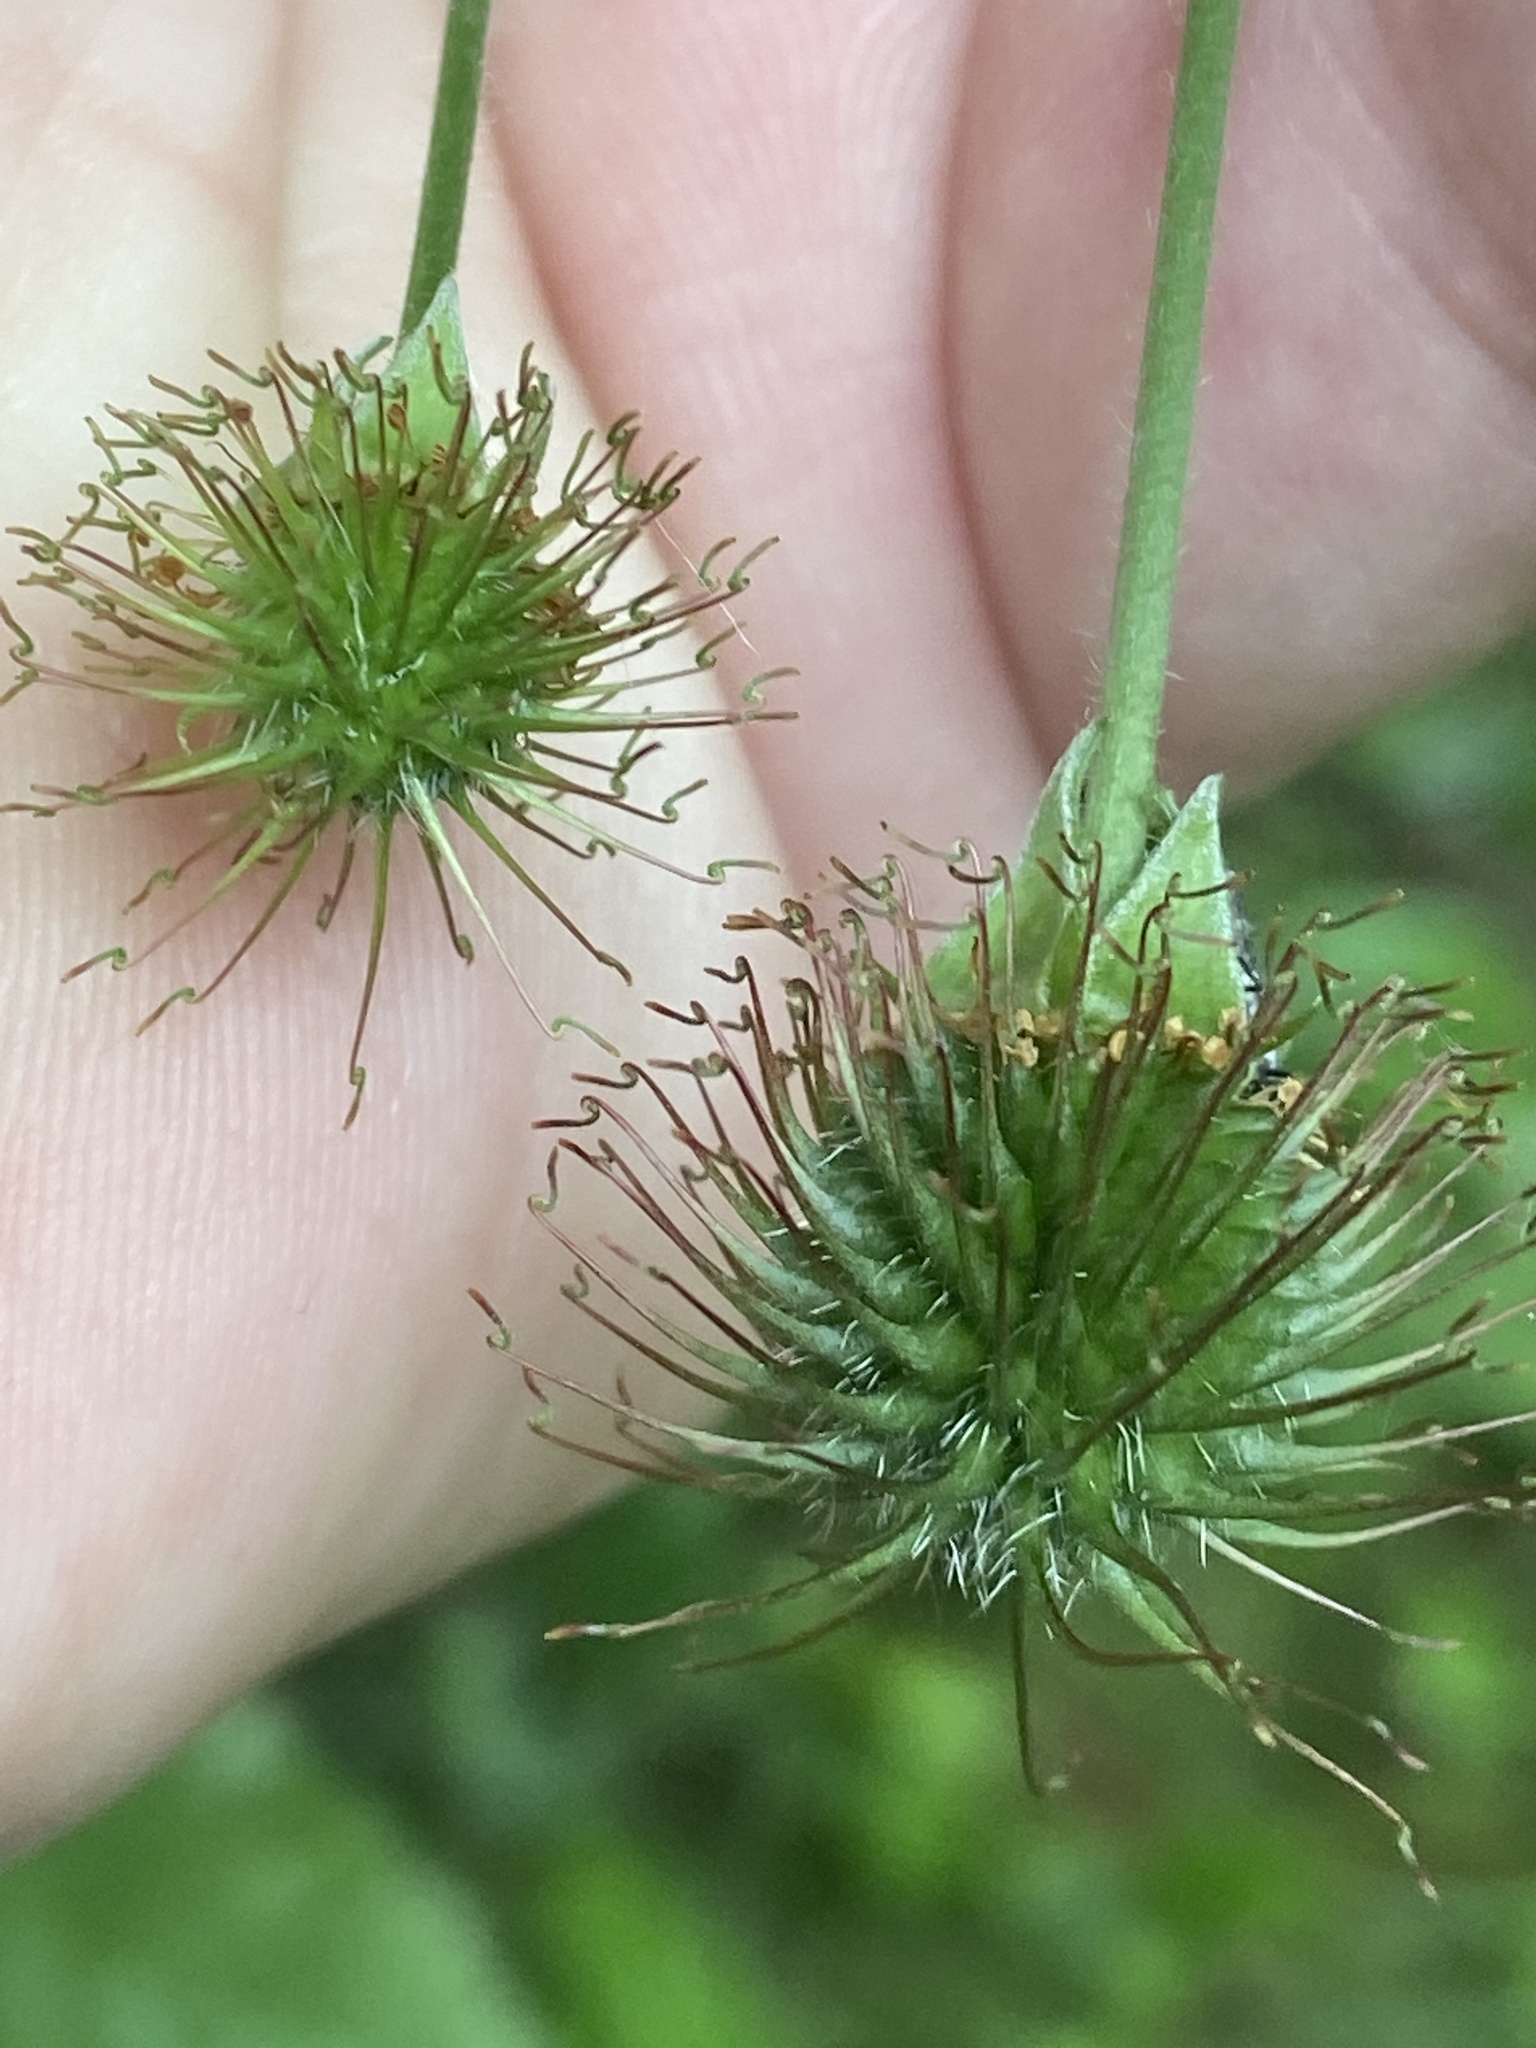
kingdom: Plantae
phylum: Tracheophyta
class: Magnoliopsida
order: Rosales
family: Rosaceae
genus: Geum
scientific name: Geum urbanum
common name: Wood avens
